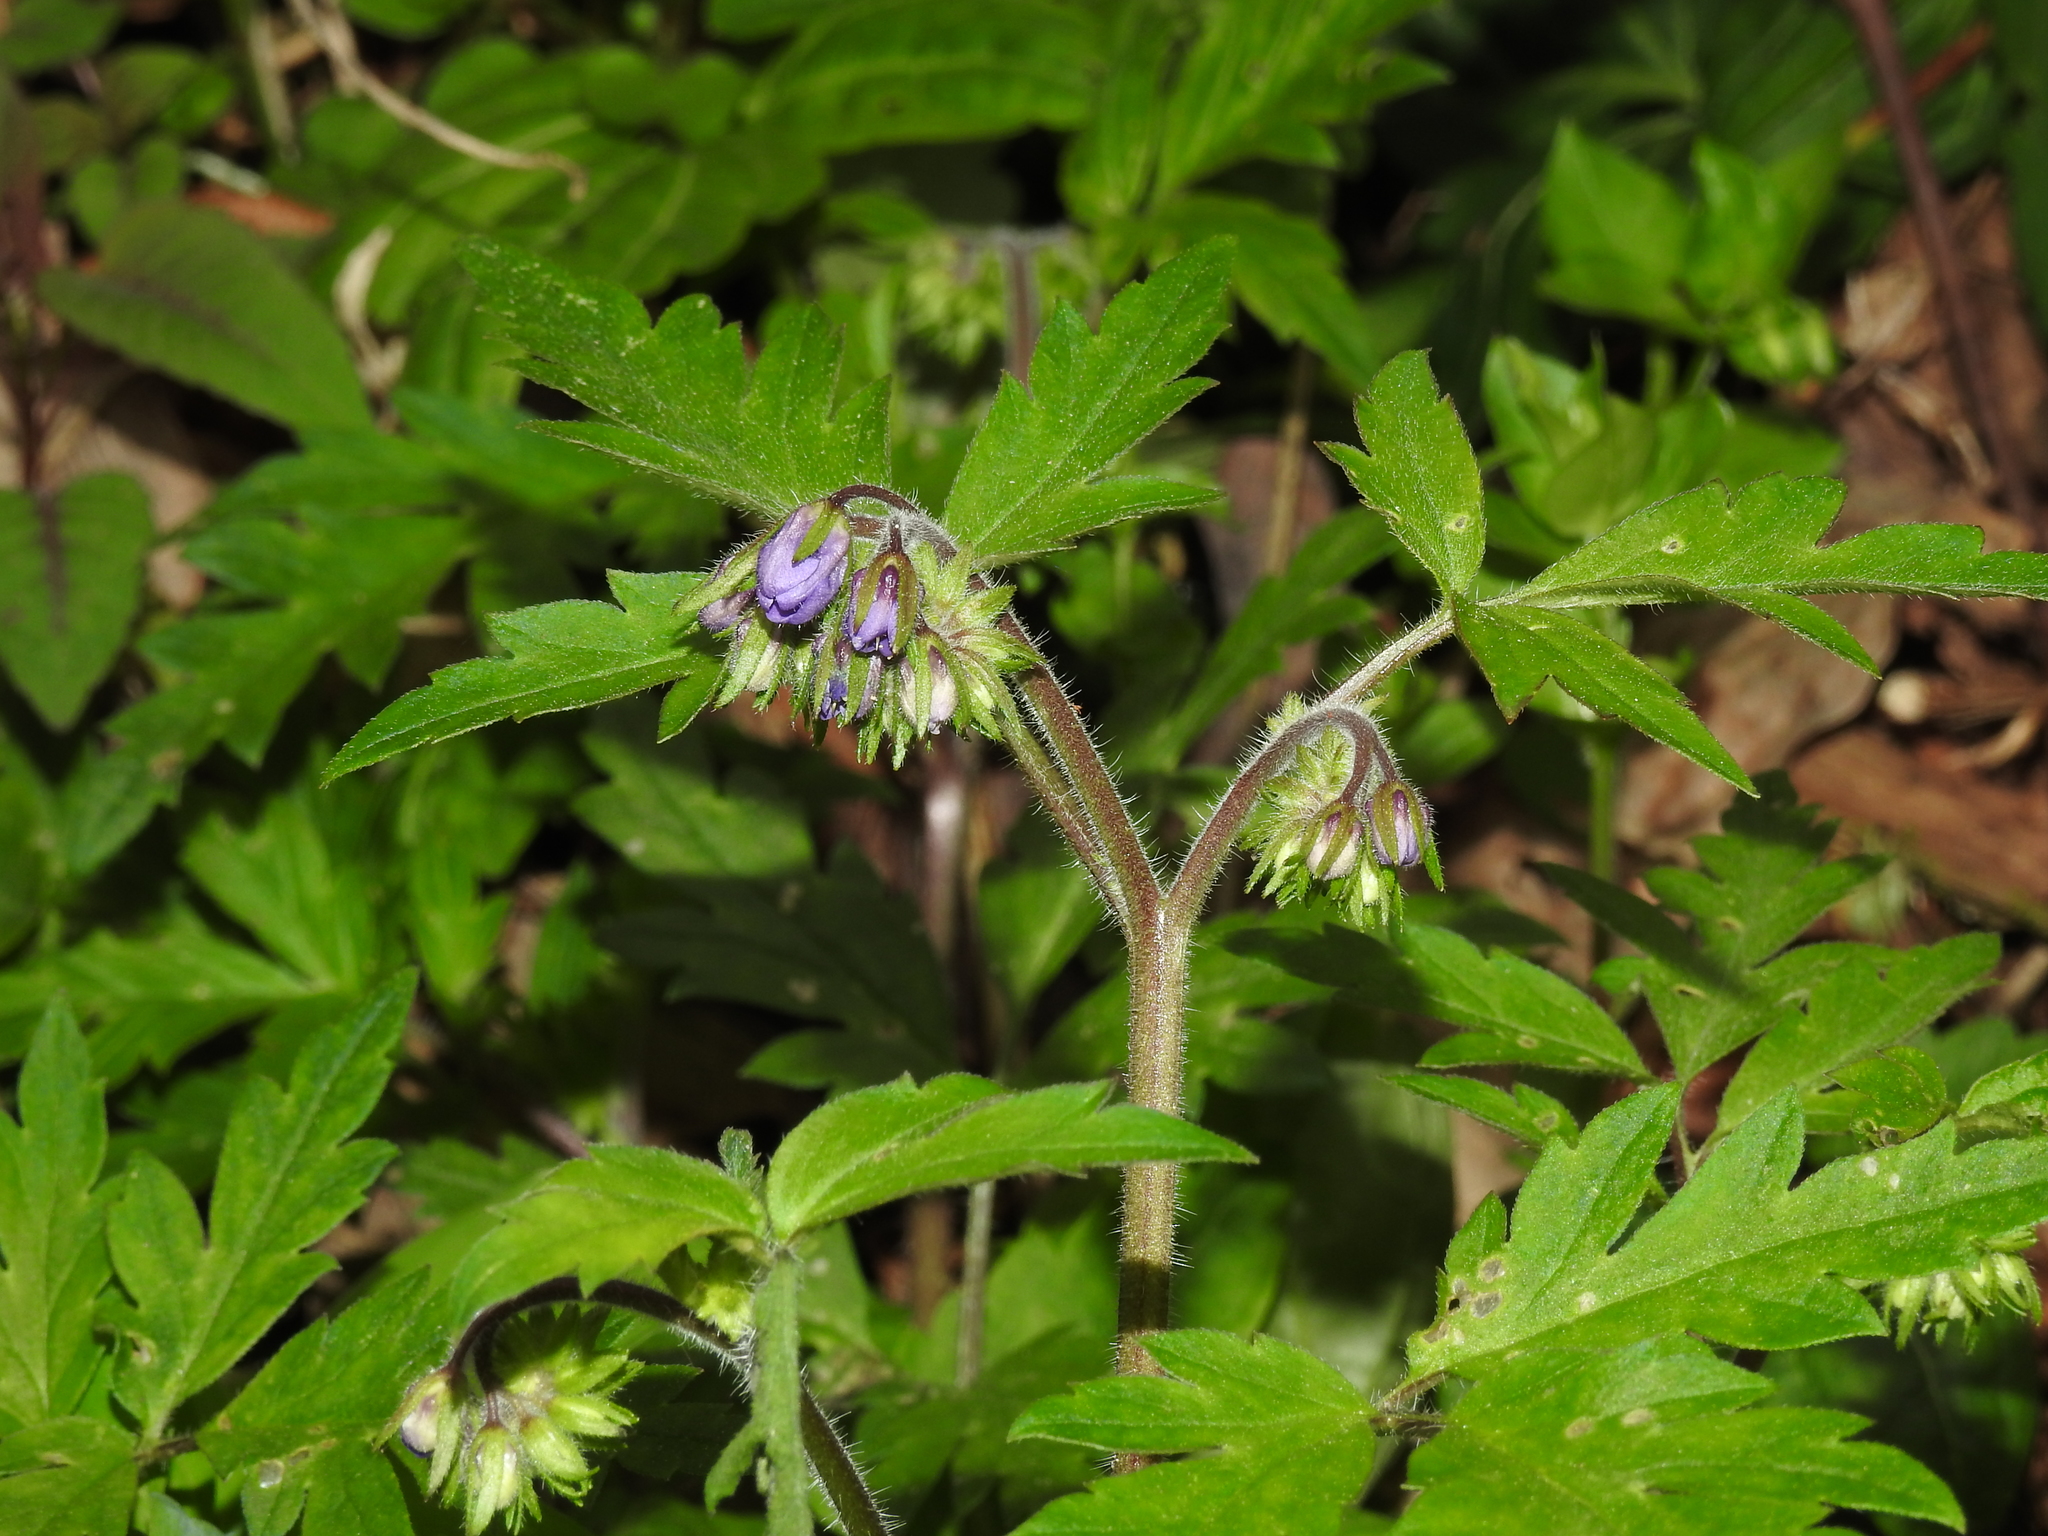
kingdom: Plantae
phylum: Tracheophyta
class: Magnoliopsida
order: Boraginales
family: Hydrophyllaceae
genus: Phacelia
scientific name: Phacelia bipinnatifida
